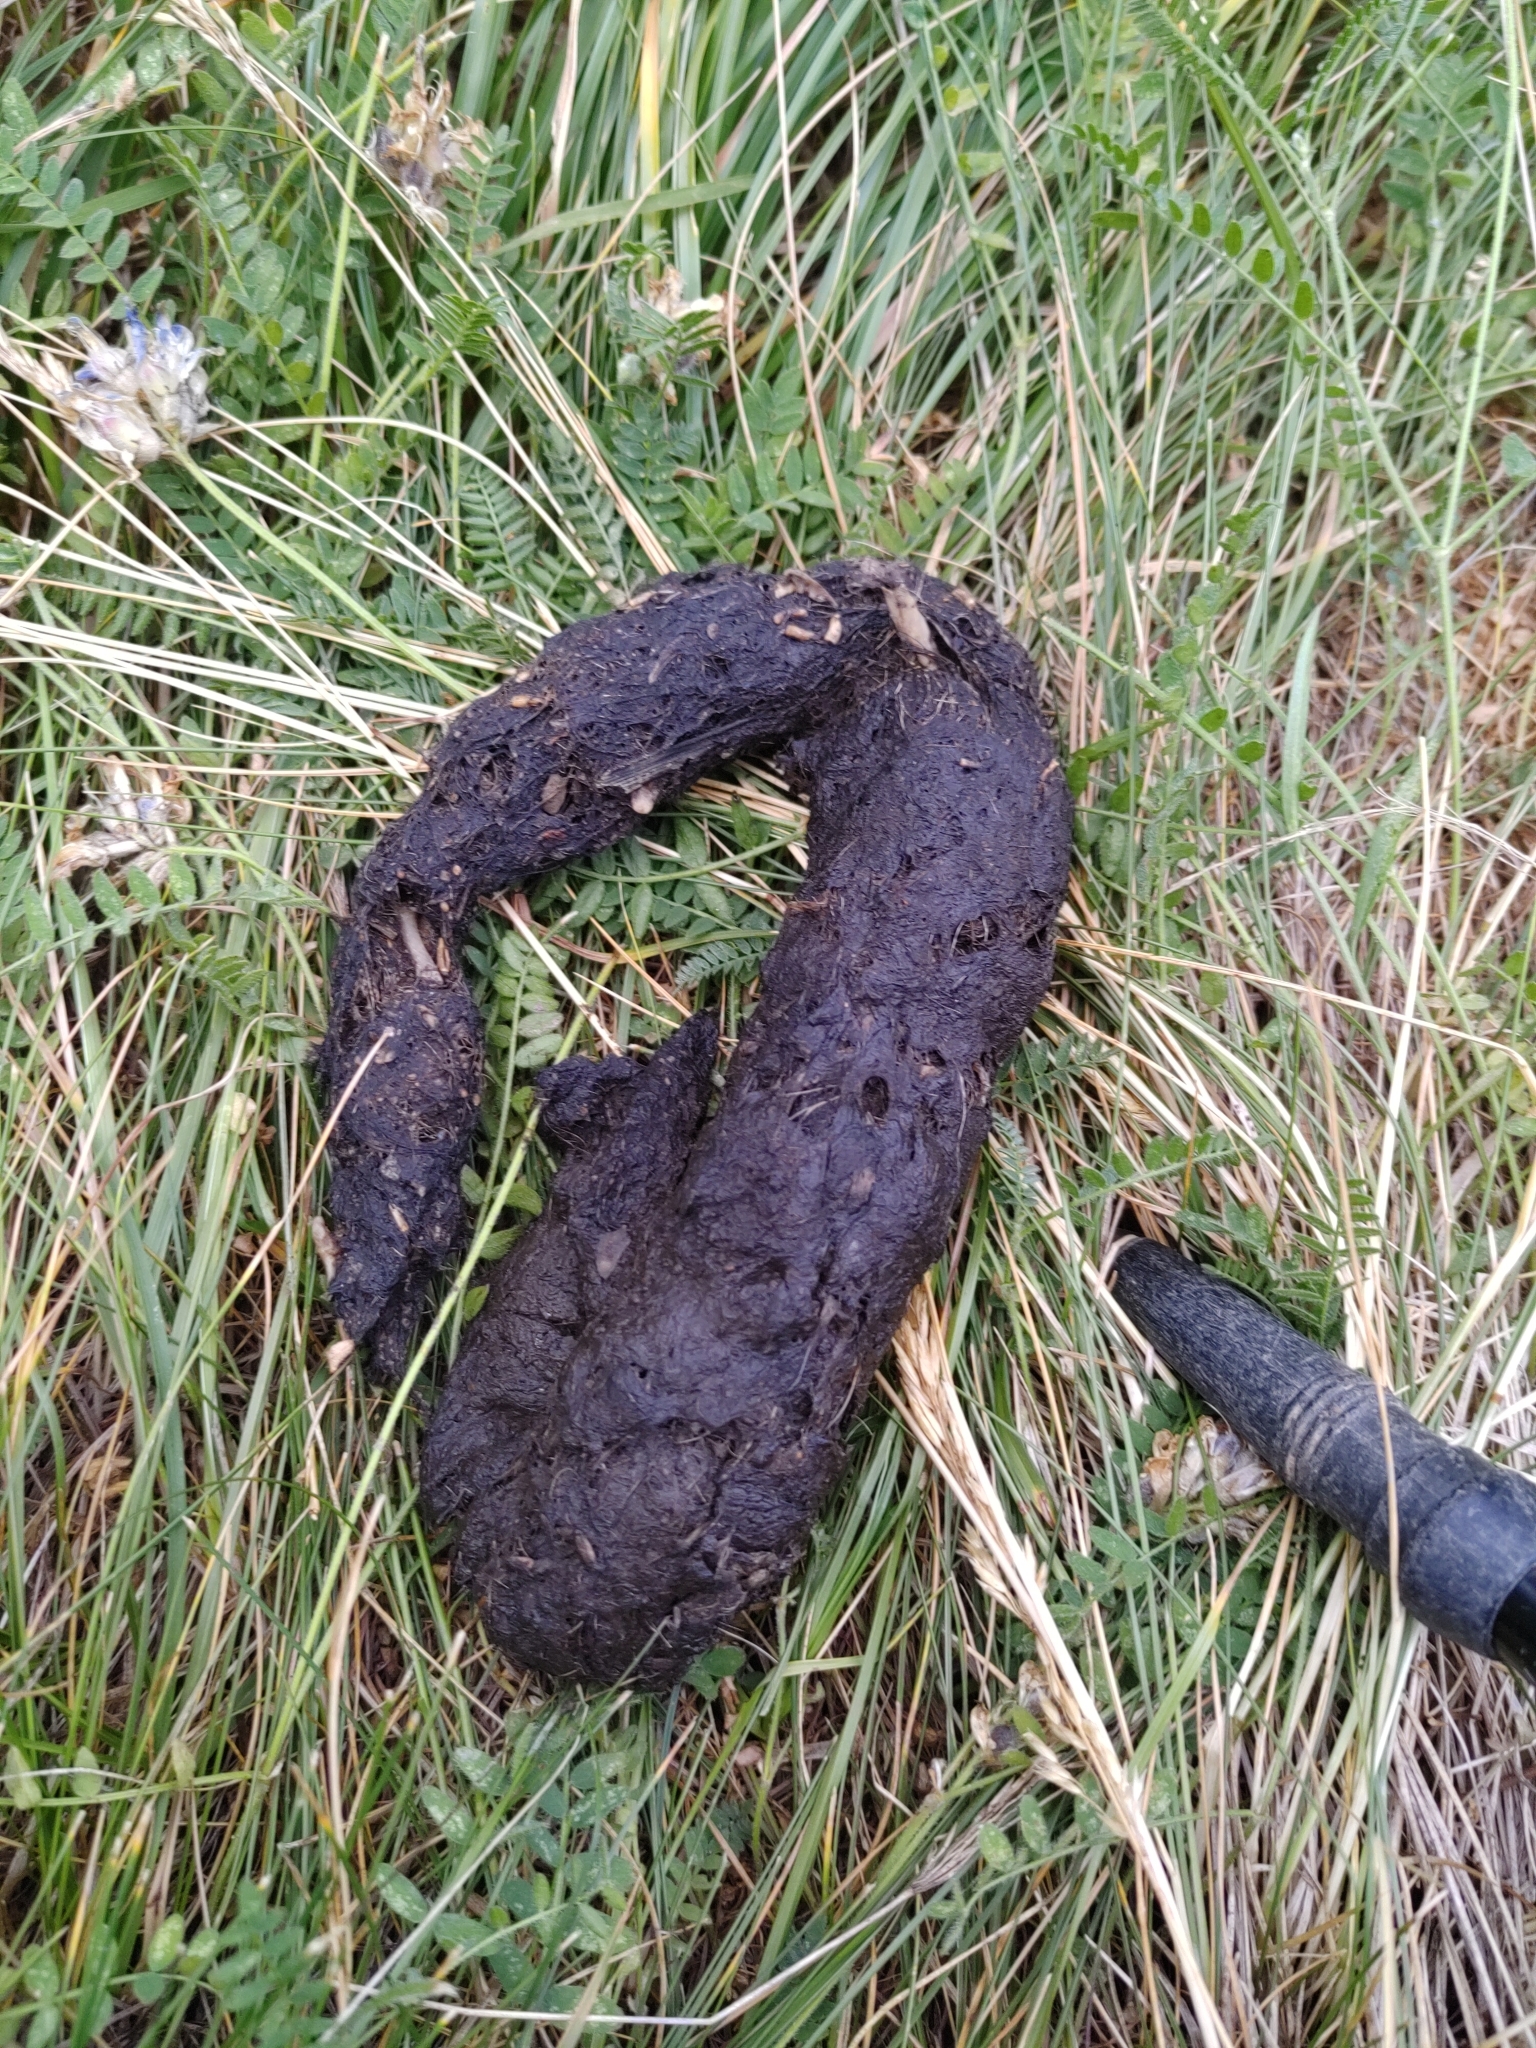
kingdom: Animalia
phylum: Chordata
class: Mammalia
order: Carnivora
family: Canidae
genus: Canis
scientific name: Canis lupus
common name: Gray wolf
